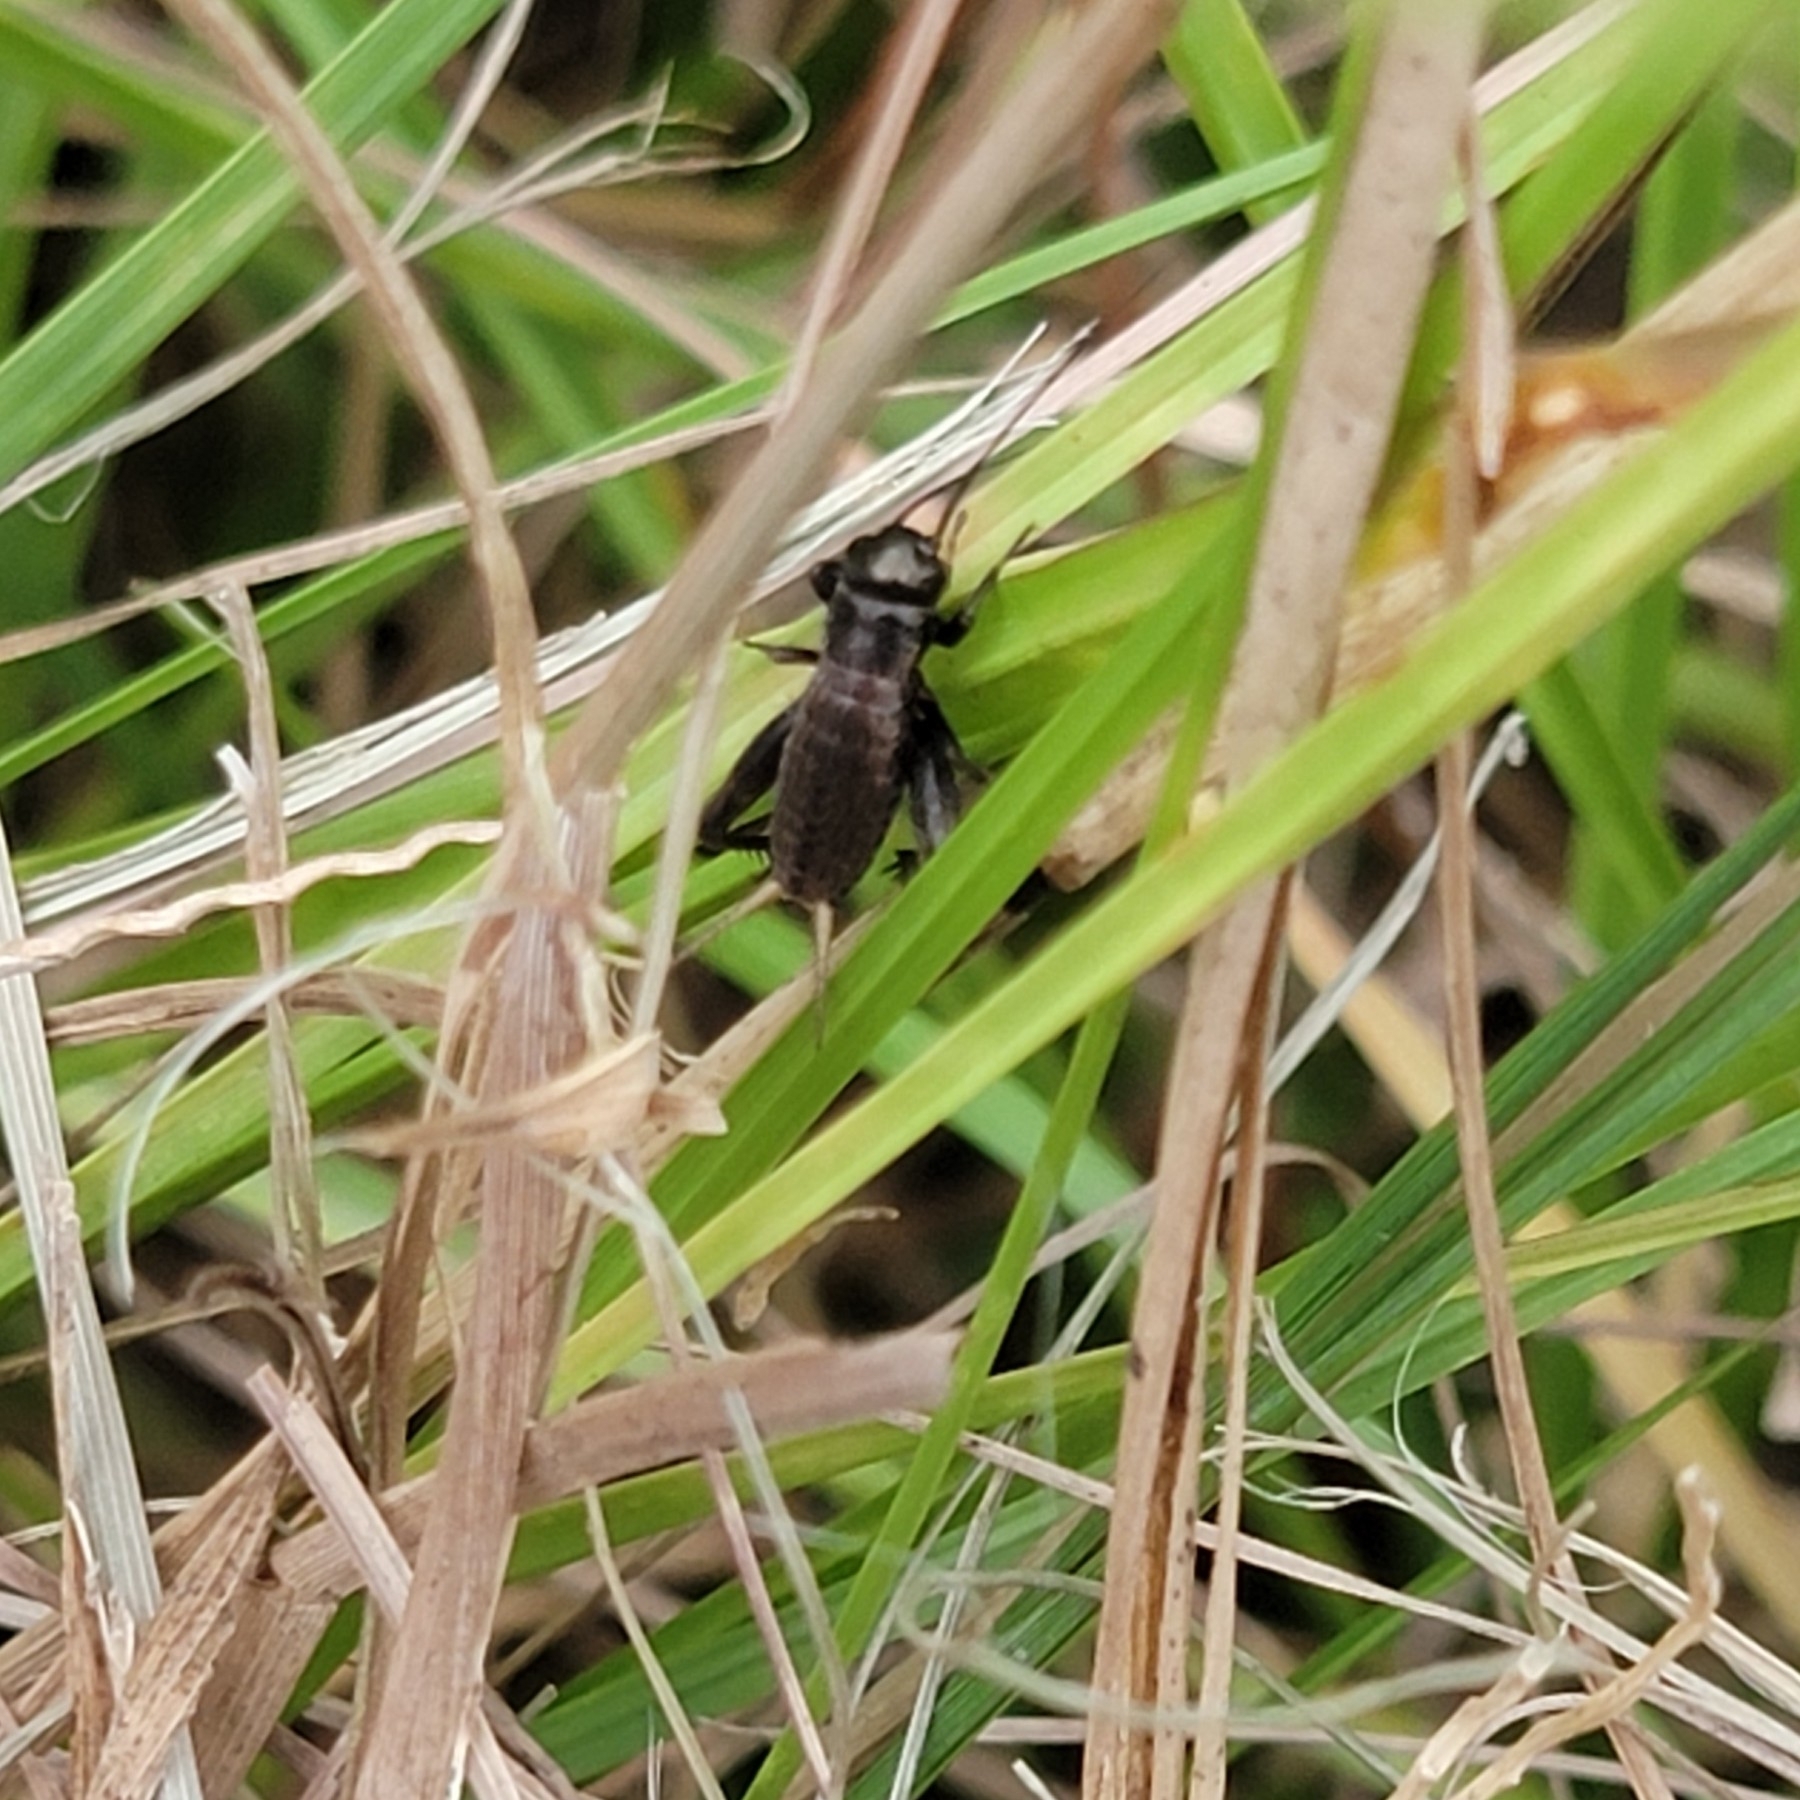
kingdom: Animalia
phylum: Arthropoda
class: Insecta
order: Orthoptera
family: Gryllidae
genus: Gryllus
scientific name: Gryllus pennsylvanicus
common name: Fall field cricket
